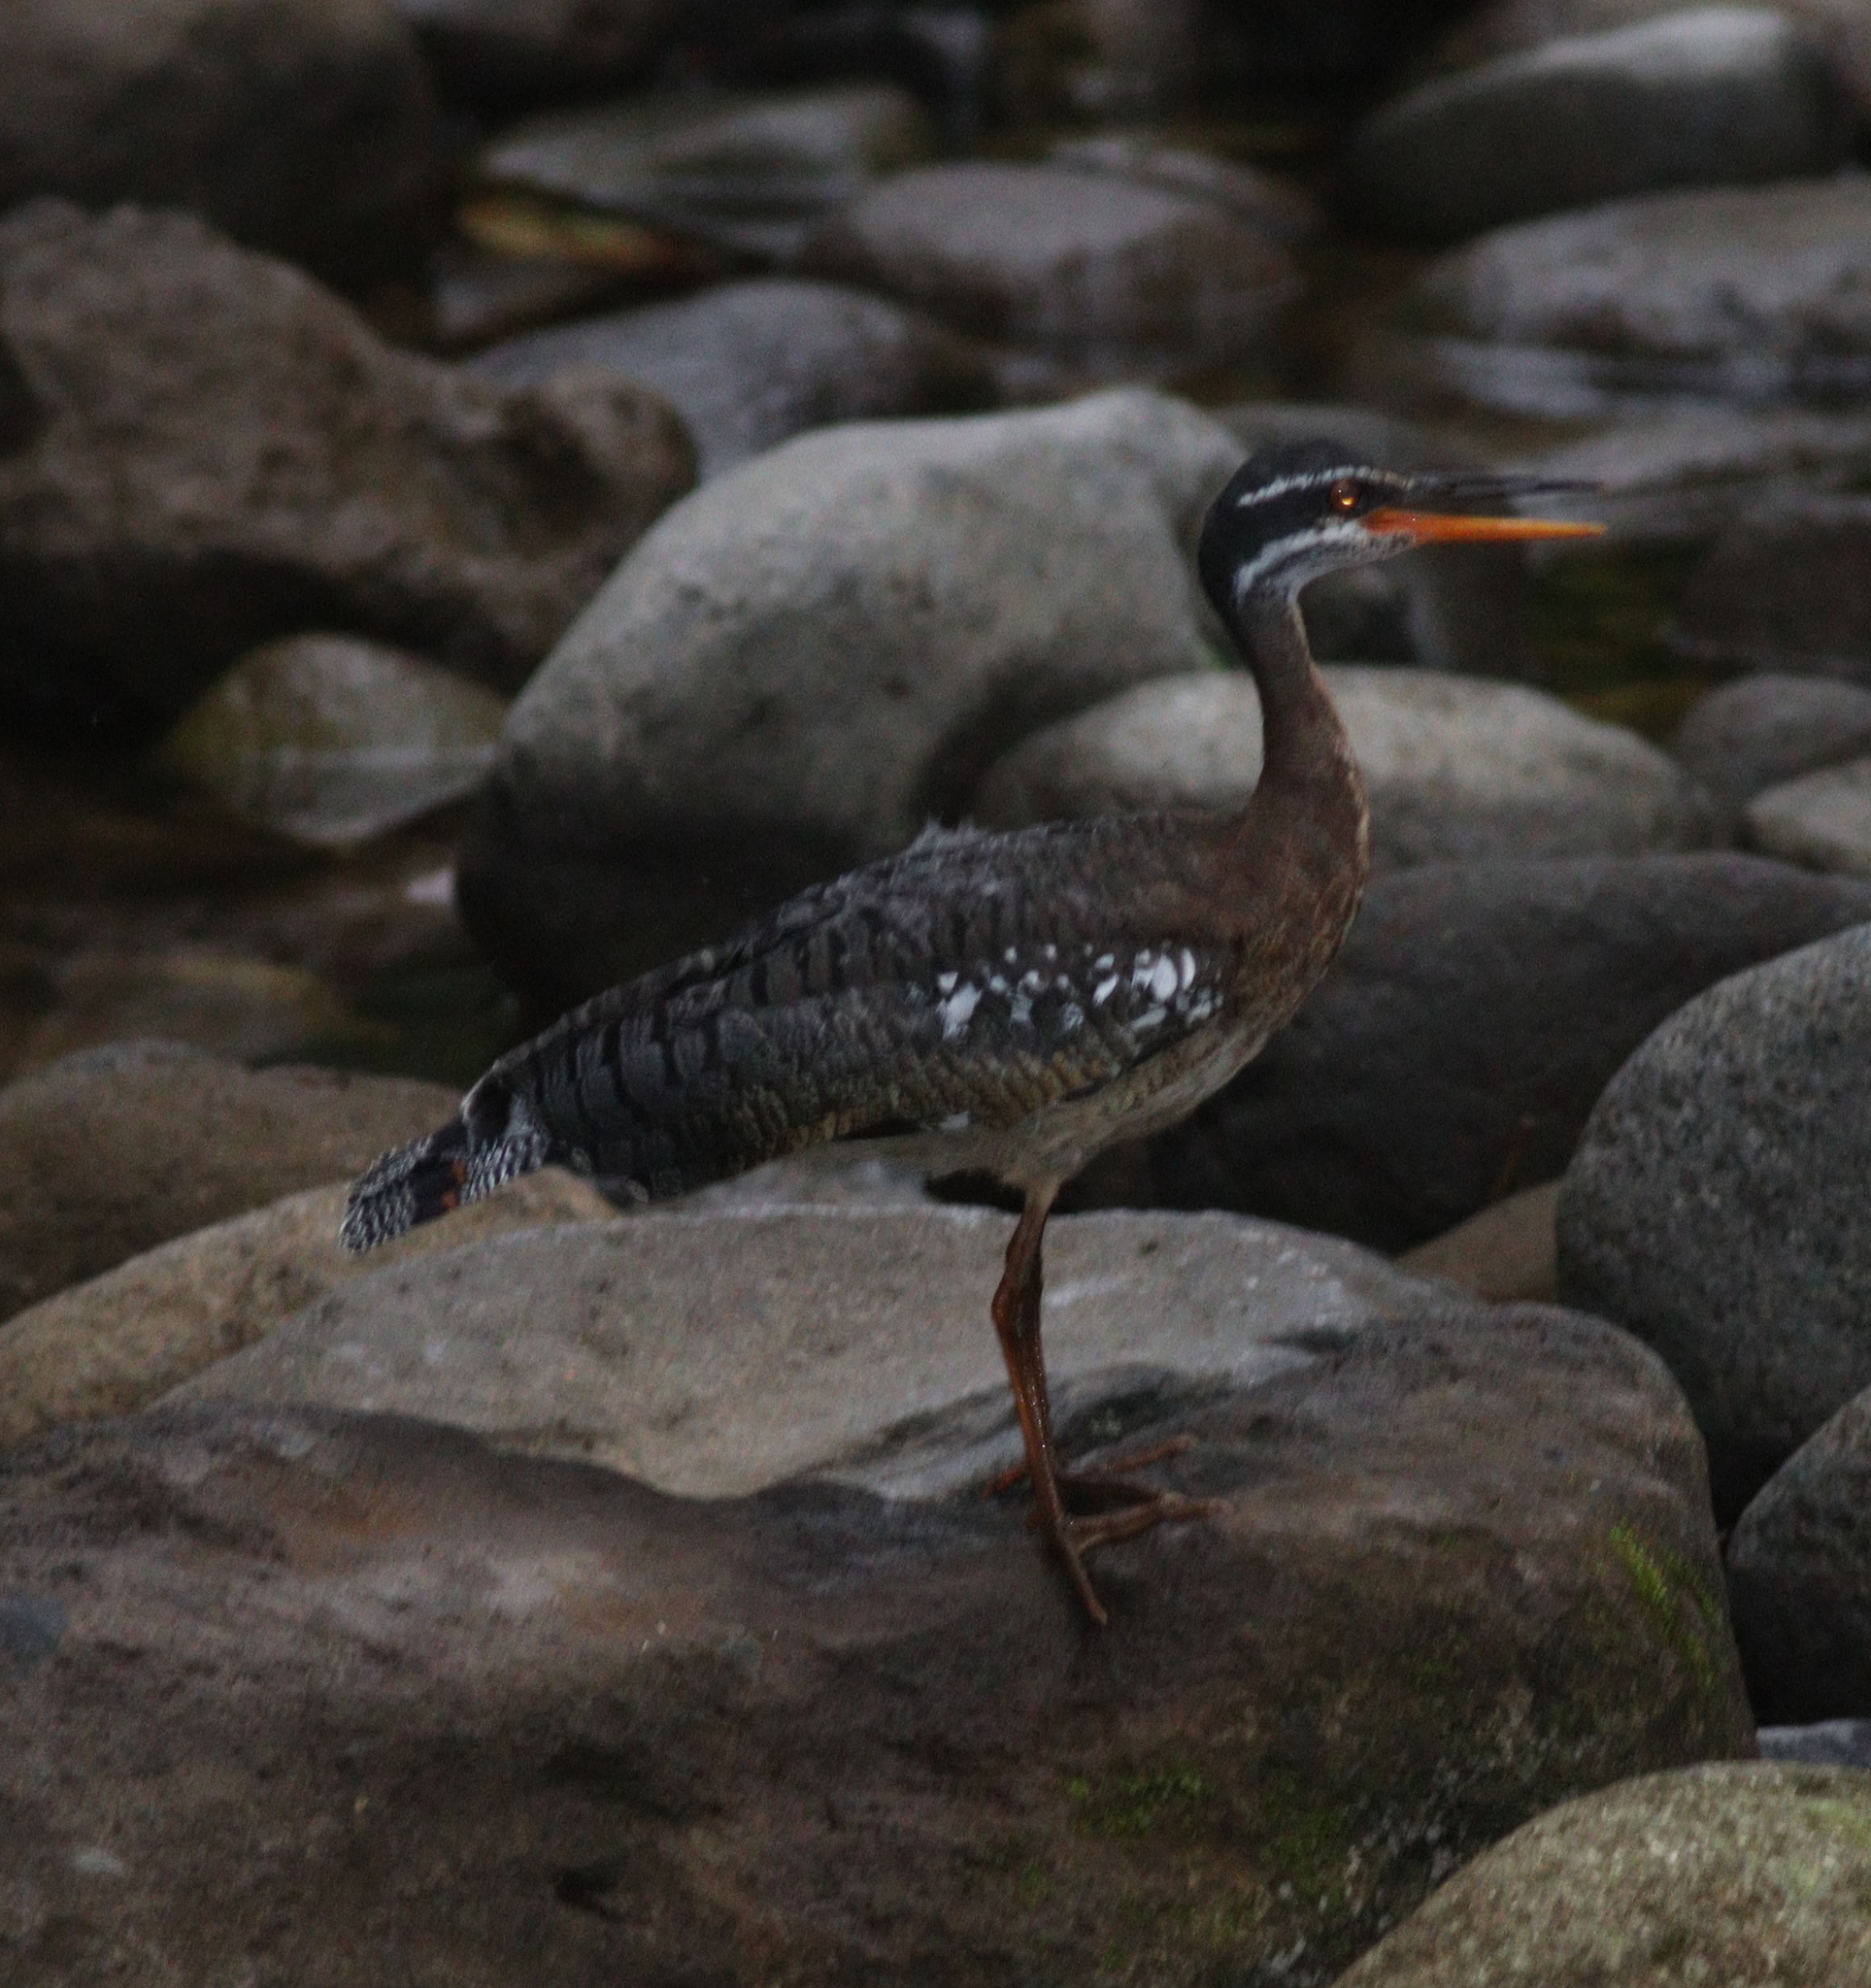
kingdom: Animalia
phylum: Chordata
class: Aves
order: Eurypygiformes
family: Eurypygidae
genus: Eurypyga
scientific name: Eurypyga helias
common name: Sunbittern
